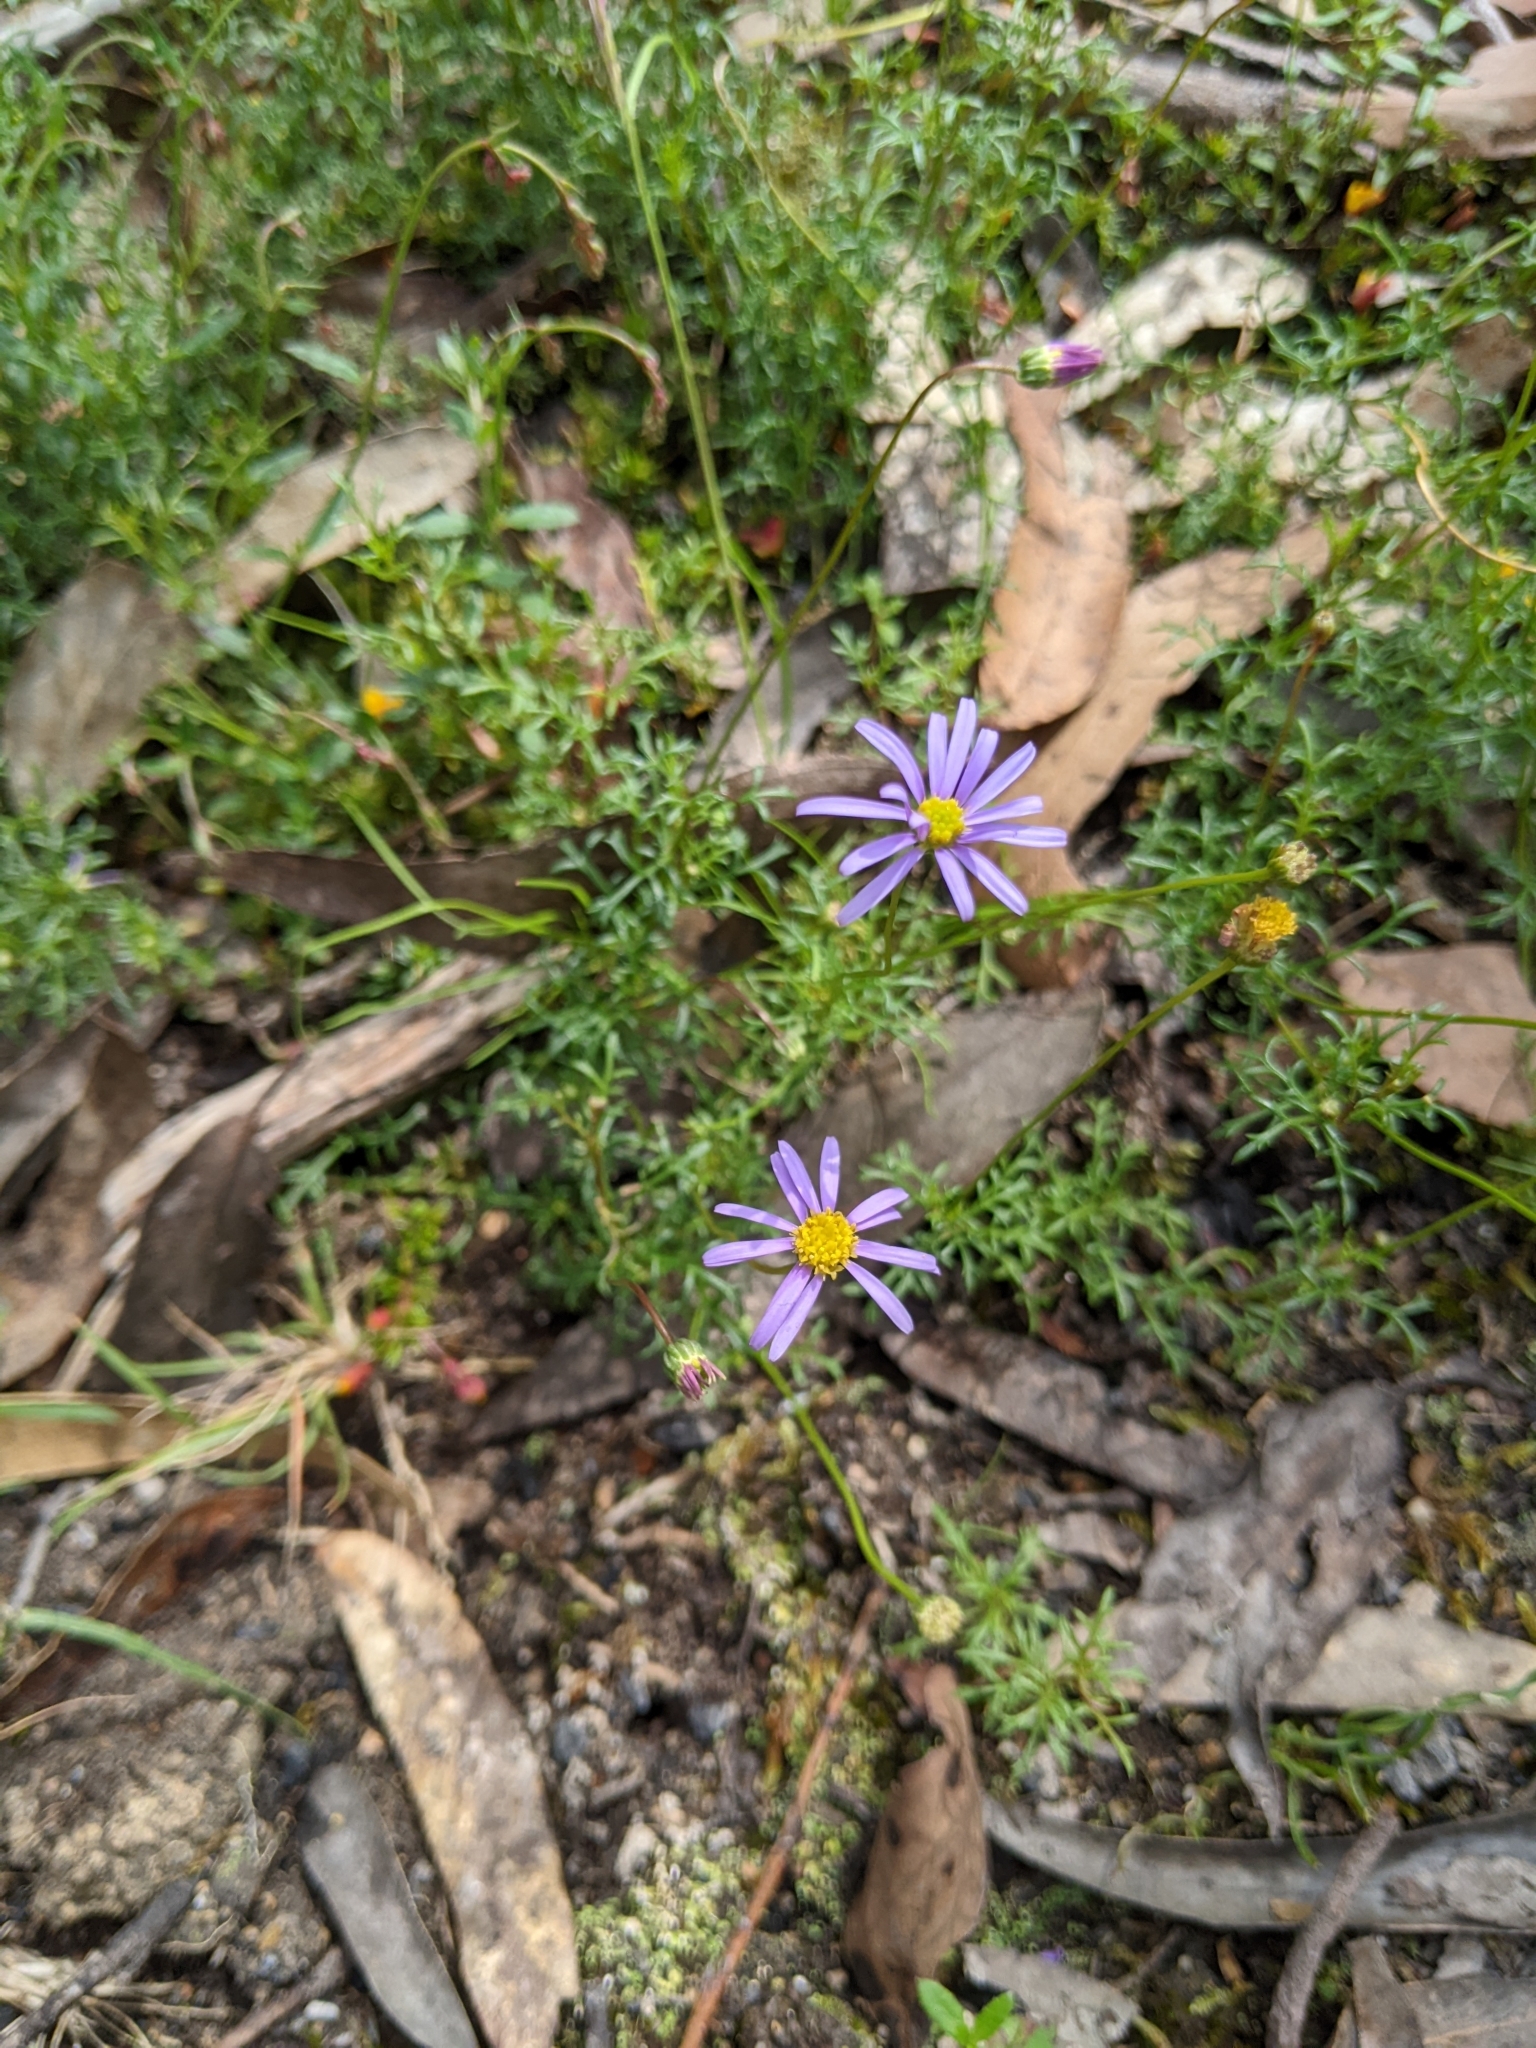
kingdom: Plantae
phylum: Tracheophyta
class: Magnoliopsida
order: Asterales
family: Asteraceae
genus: Brachyscome
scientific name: Brachyscome multifida
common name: Cut-leaf daisy
